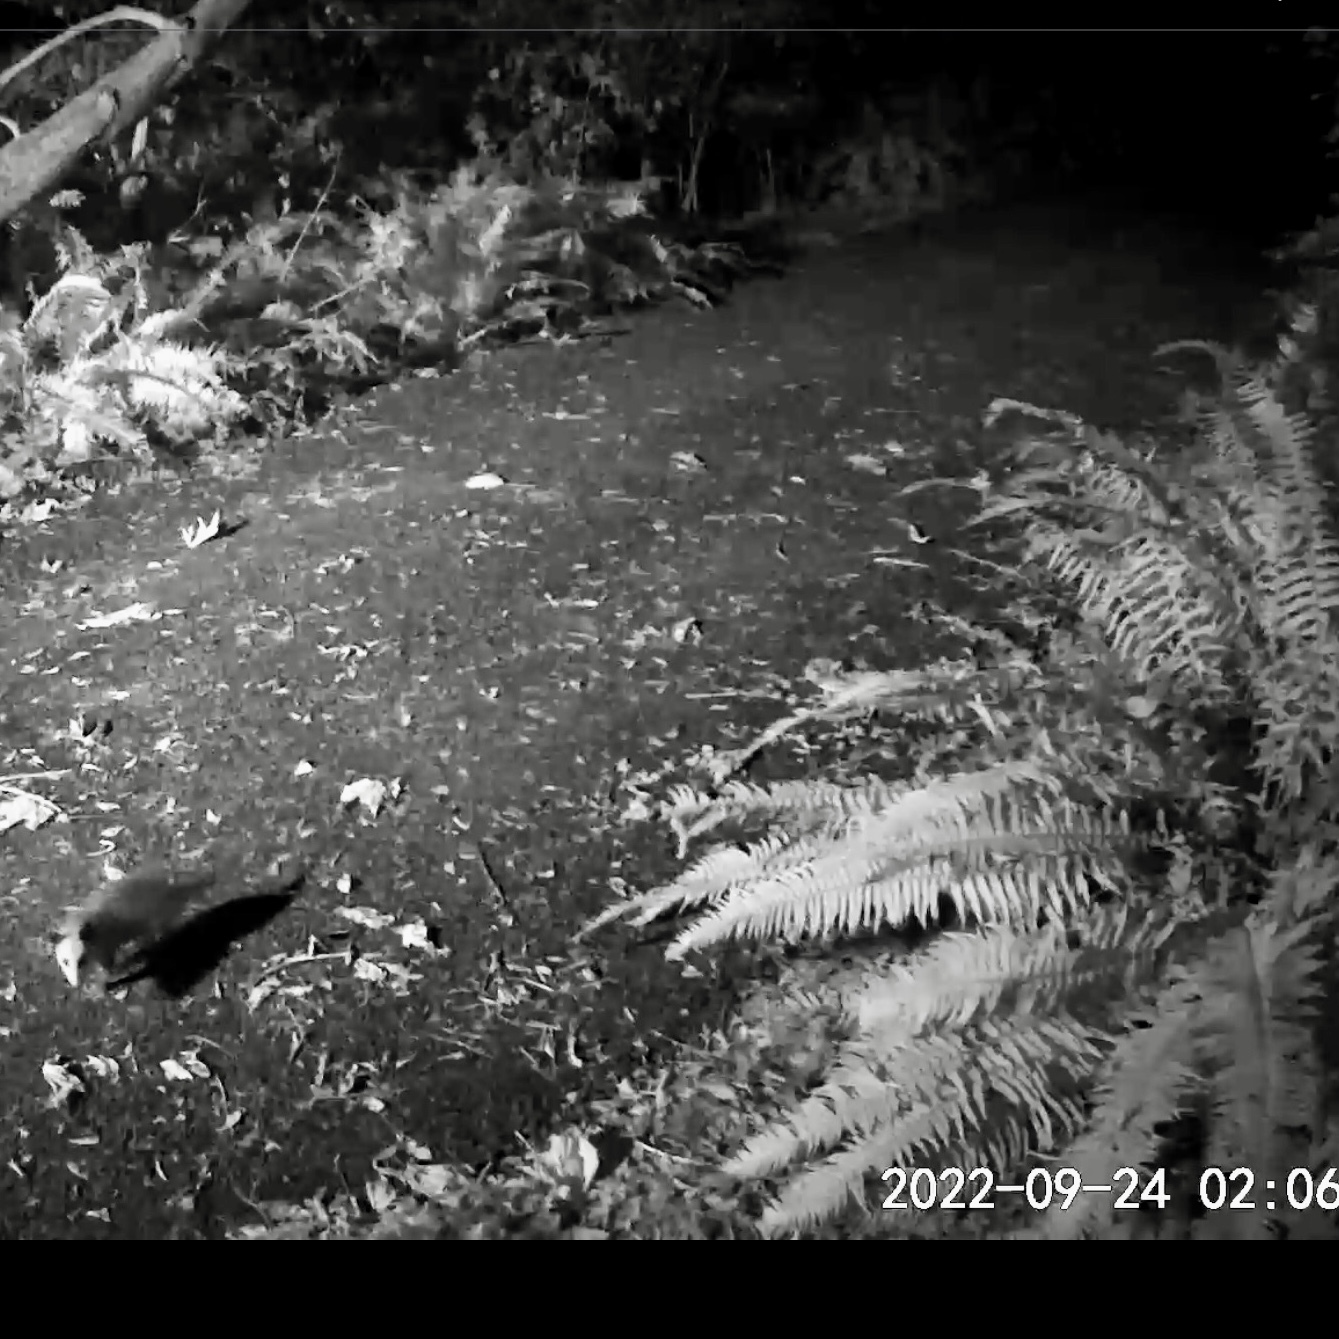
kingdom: Animalia
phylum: Chordata
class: Mammalia
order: Didelphimorphia
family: Didelphidae
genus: Didelphis
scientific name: Didelphis virginiana
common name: Virginia opossum
